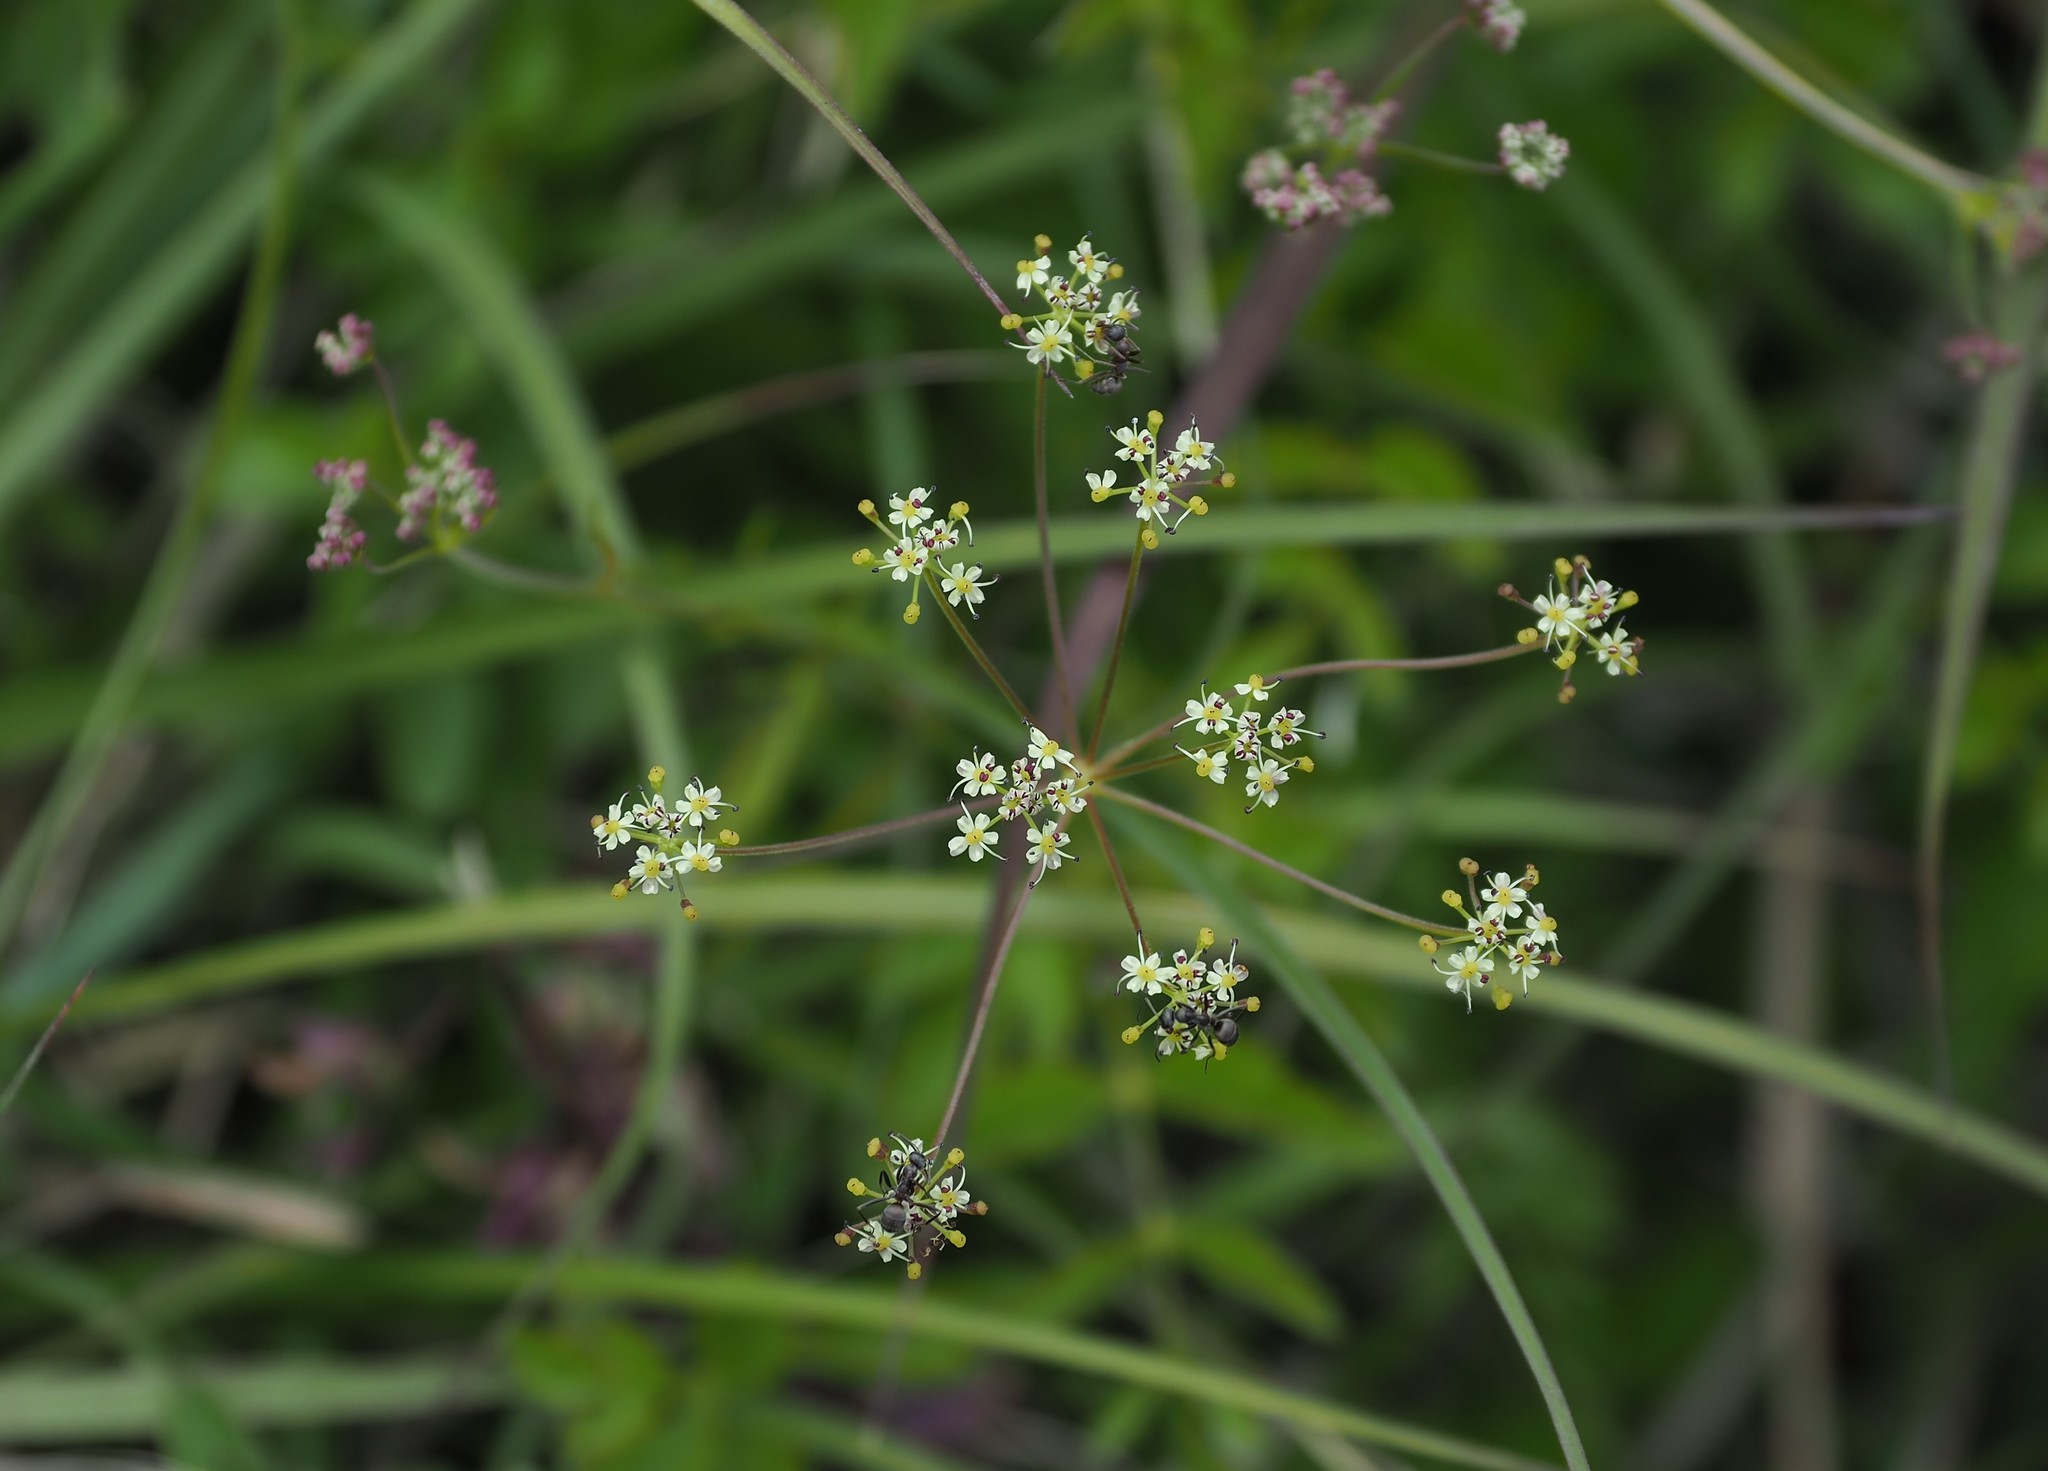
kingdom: Plantae
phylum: Tracheophyta
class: Magnoliopsida
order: Apiales
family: Apiaceae
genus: Pimpinella
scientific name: Pimpinella niitakayamensis
